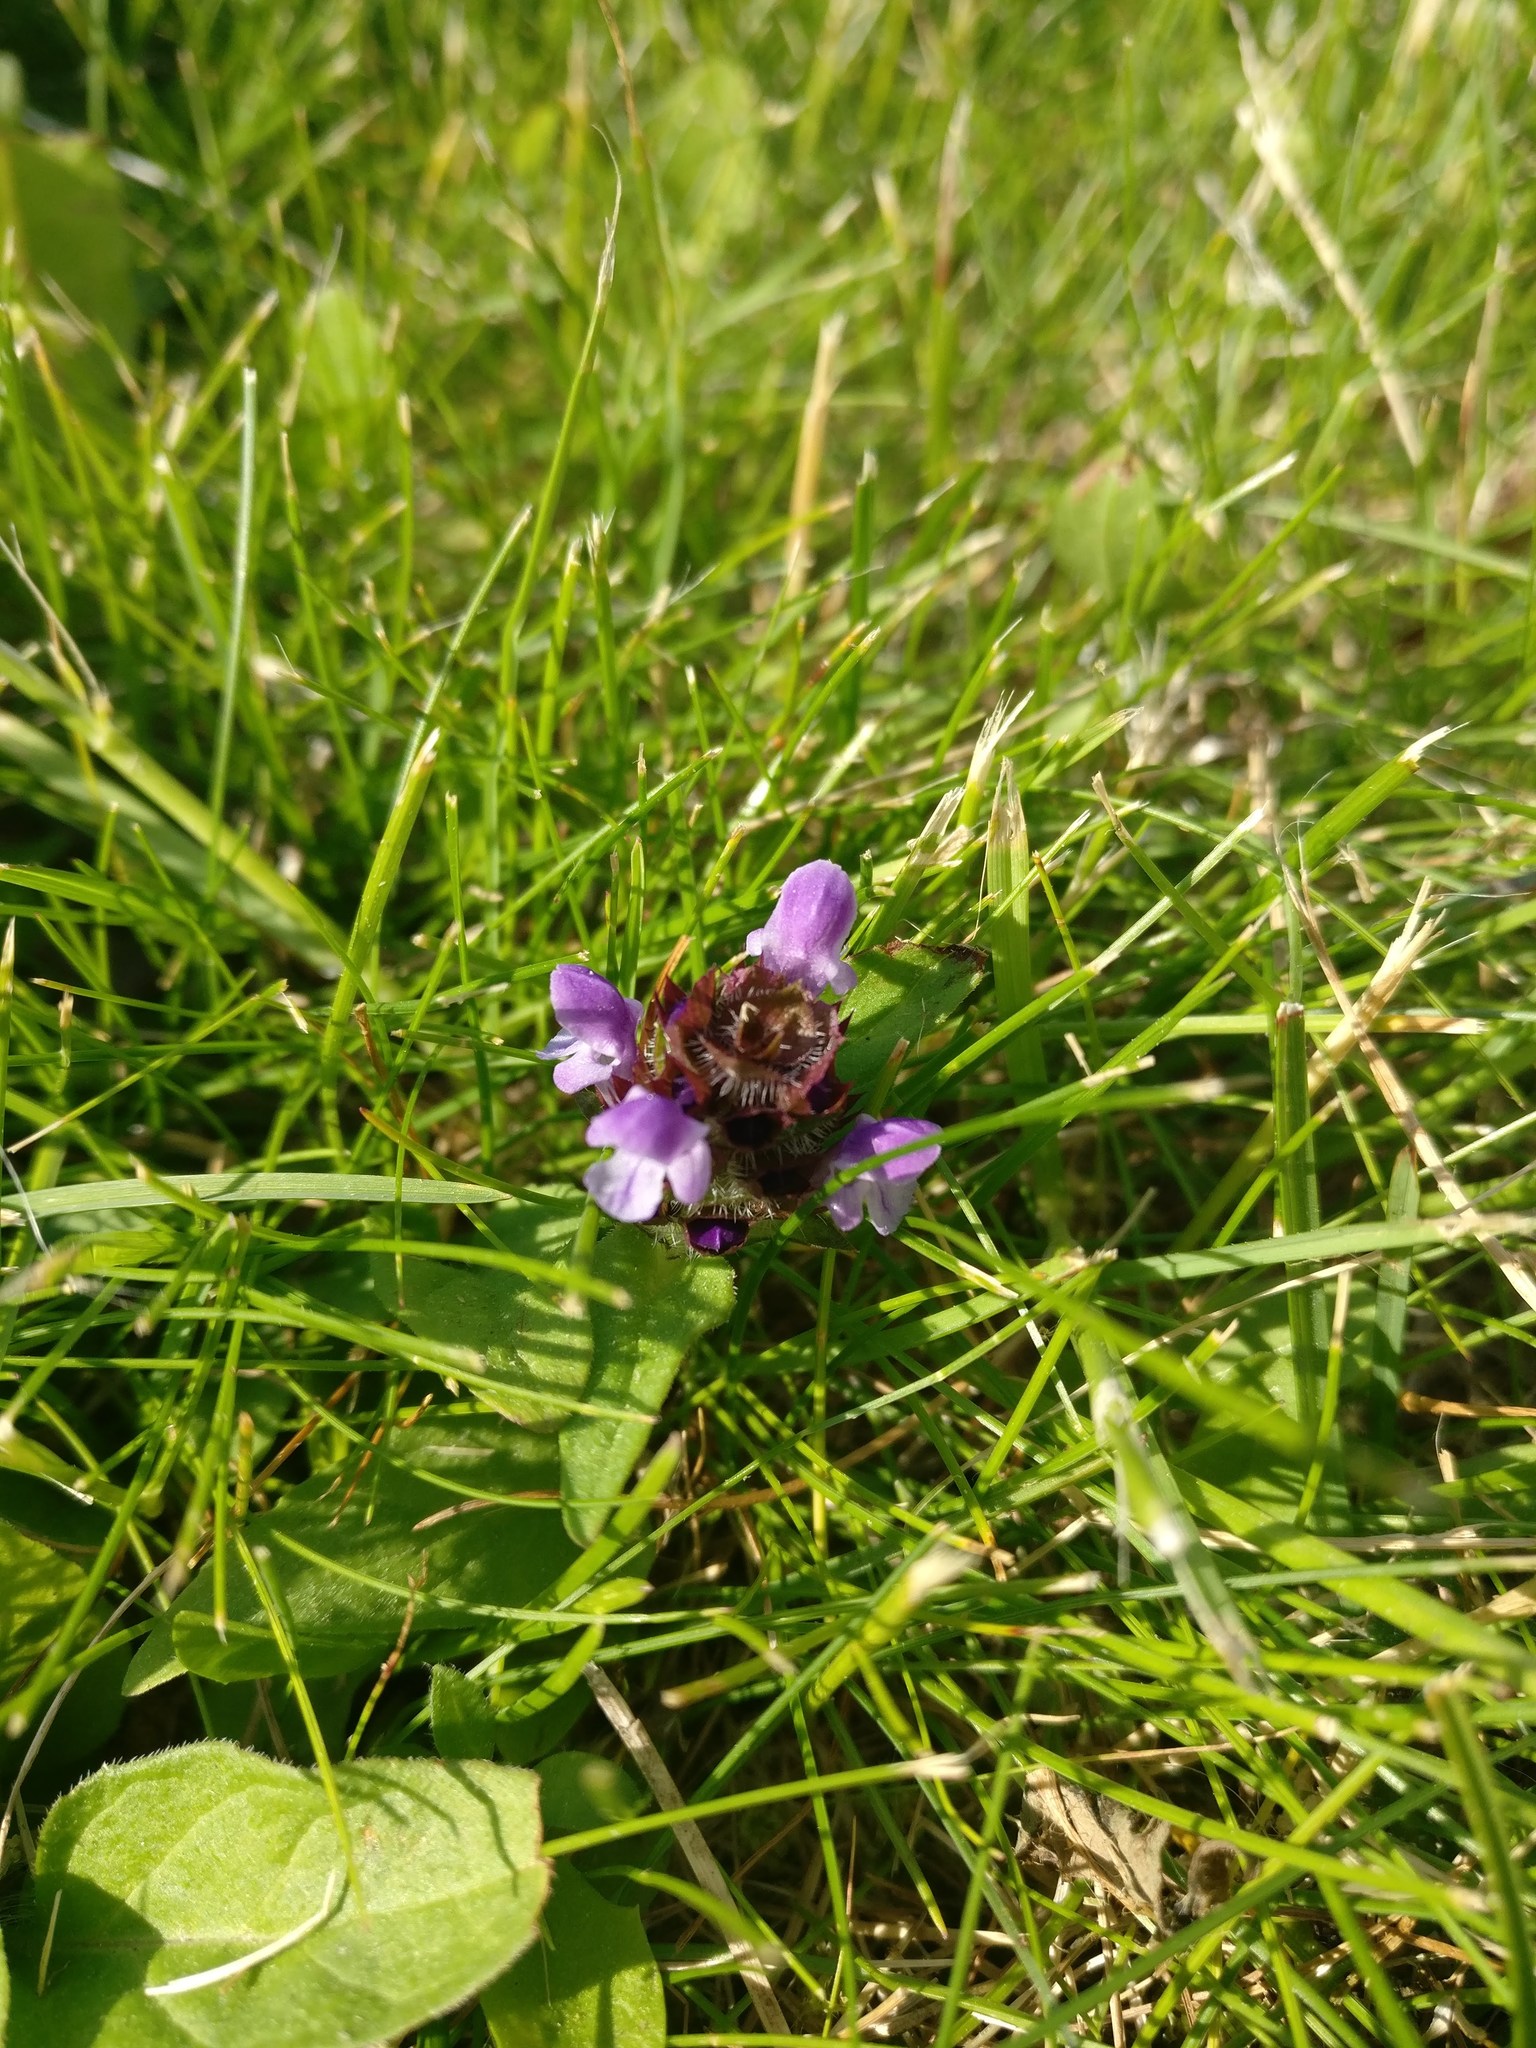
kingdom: Plantae
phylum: Tracheophyta
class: Magnoliopsida
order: Lamiales
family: Lamiaceae
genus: Prunella
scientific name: Prunella vulgaris
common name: Heal-all
